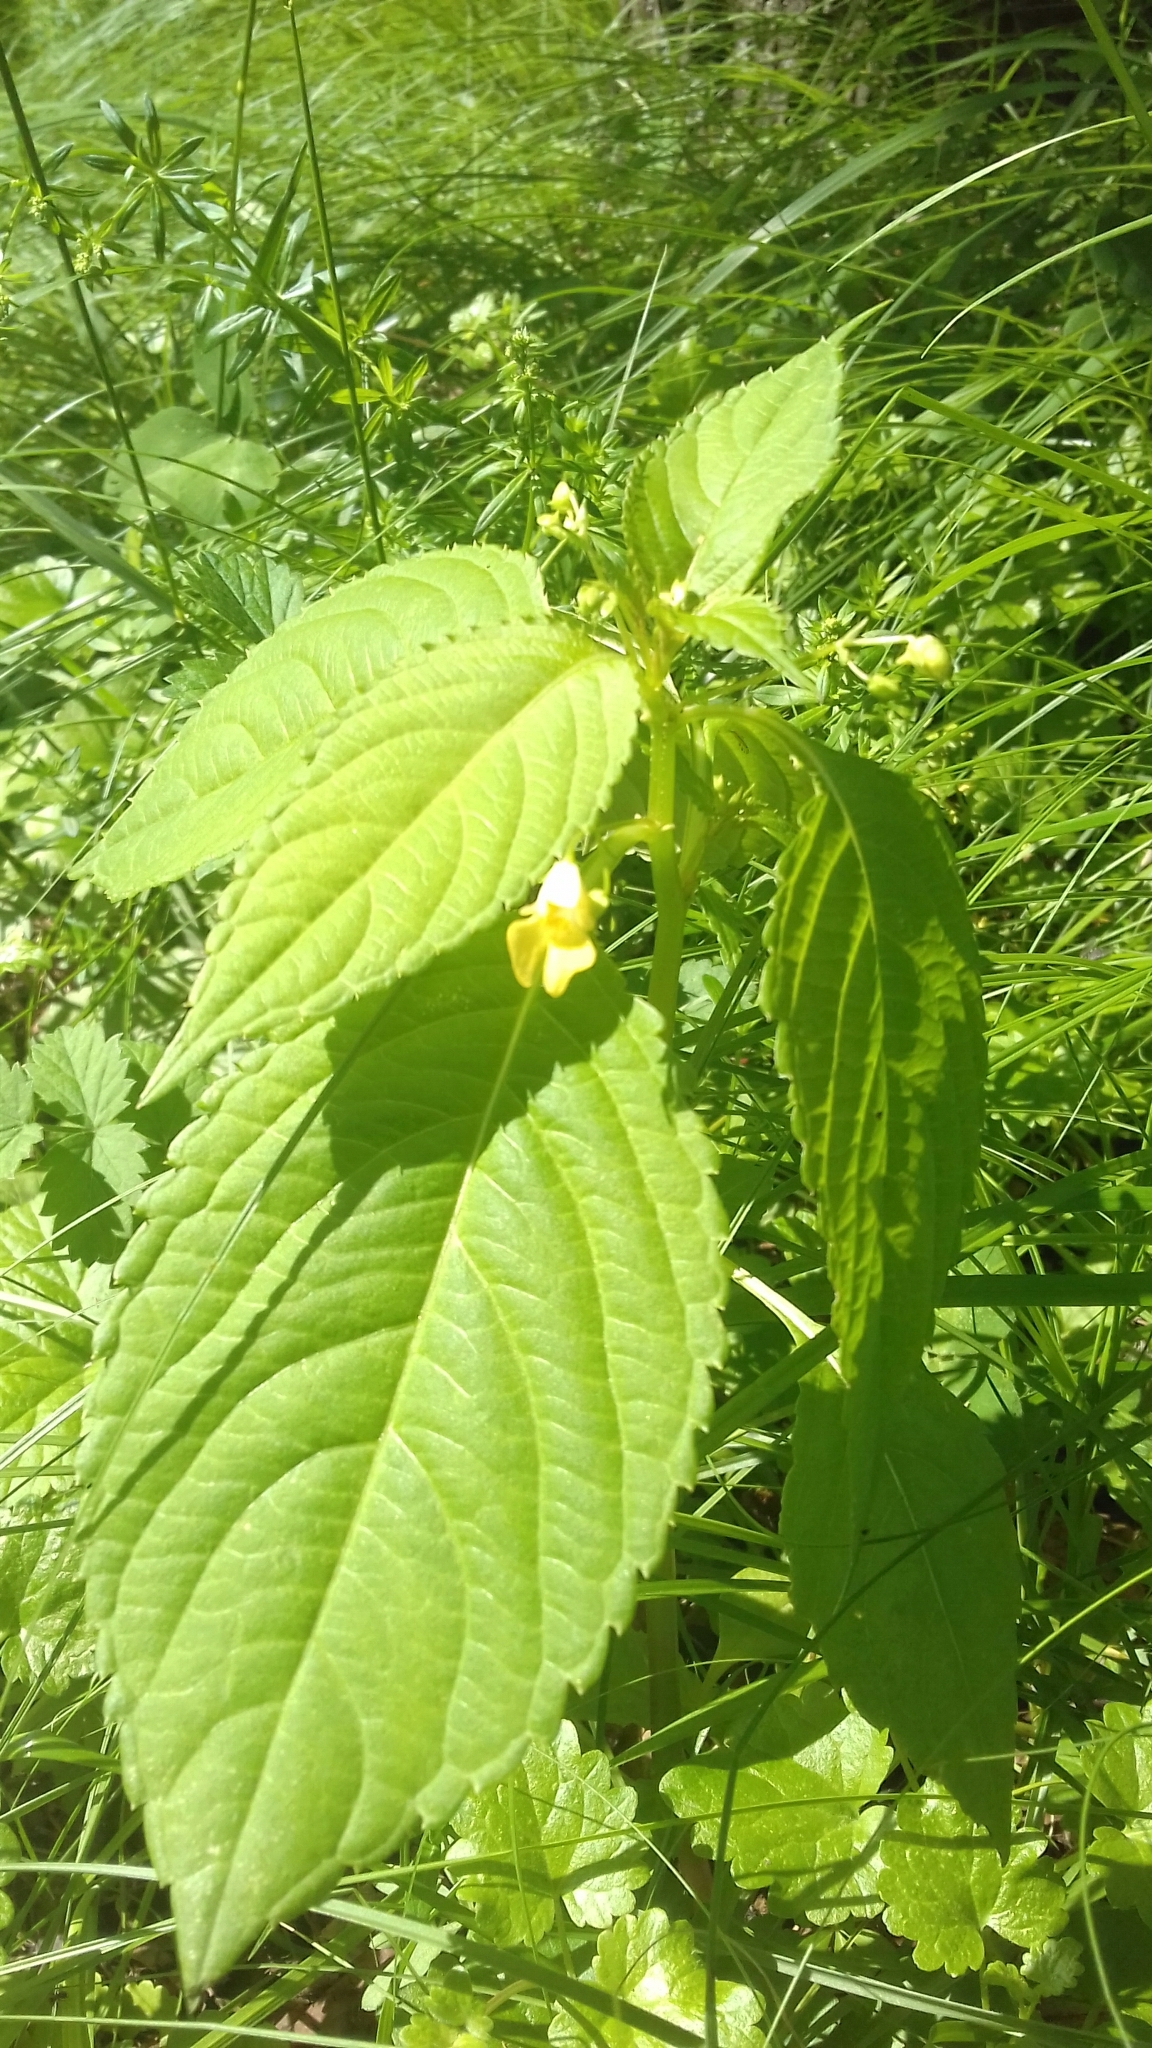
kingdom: Plantae
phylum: Tracheophyta
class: Magnoliopsida
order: Ericales
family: Balsaminaceae
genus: Impatiens
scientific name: Impatiens parviflora
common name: Small balsam
